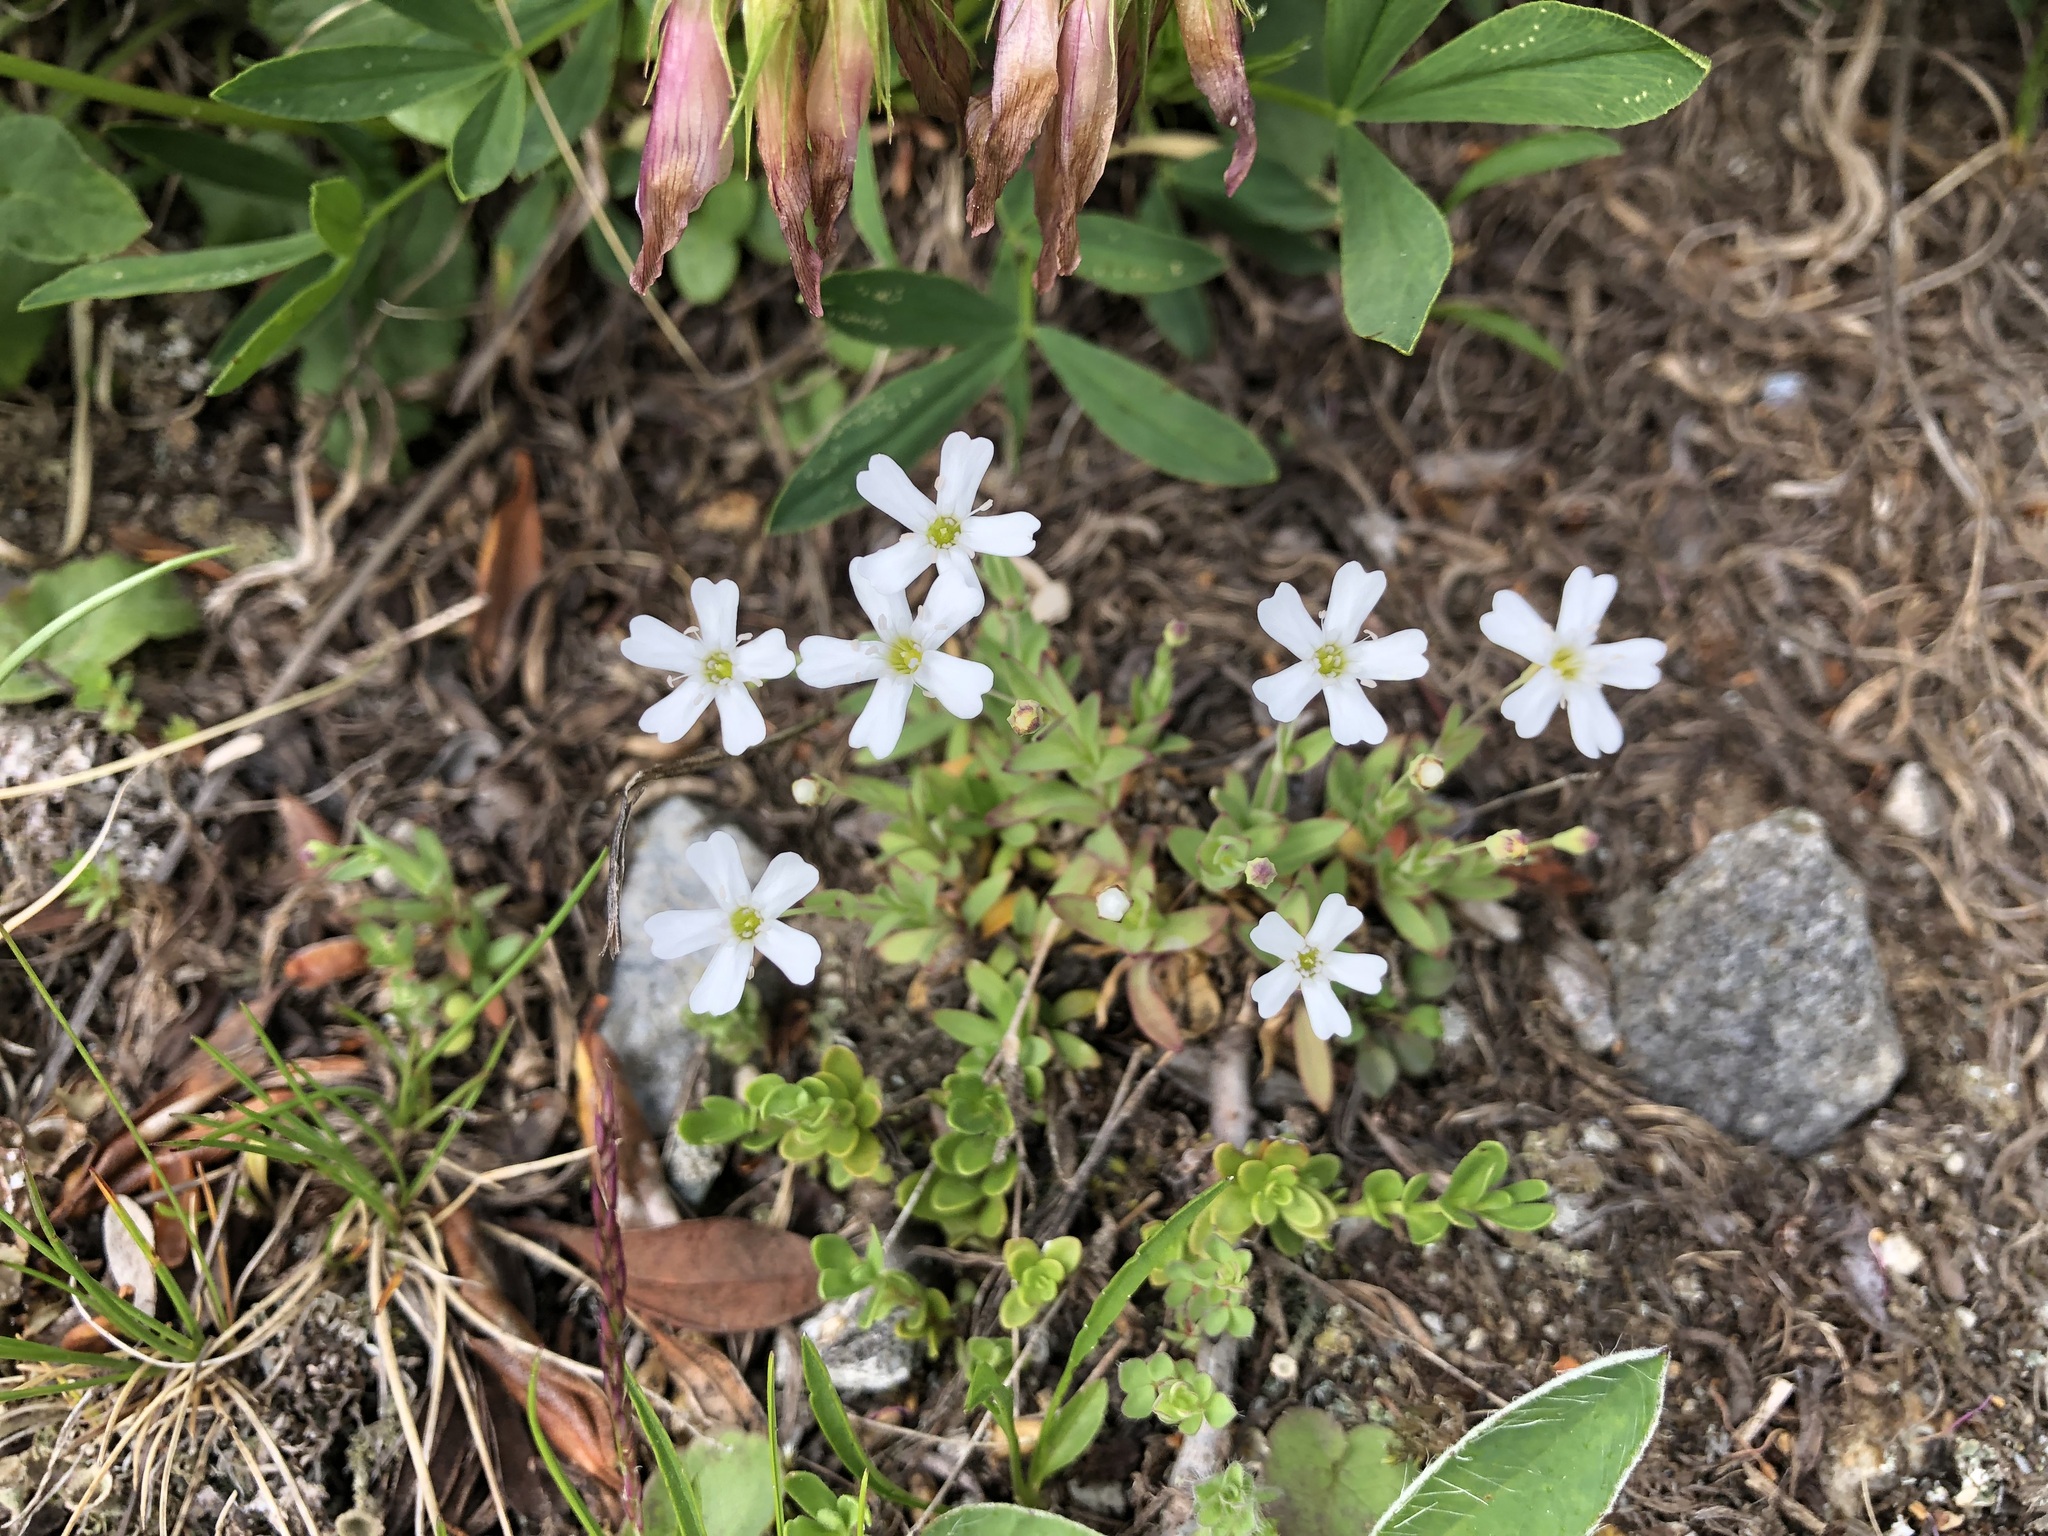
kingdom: Plantae
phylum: Tracheophyta
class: Magnoliopsida
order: Caryophyllales
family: Caryophyllaceae
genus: Atocion
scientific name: Atocion rupestre
